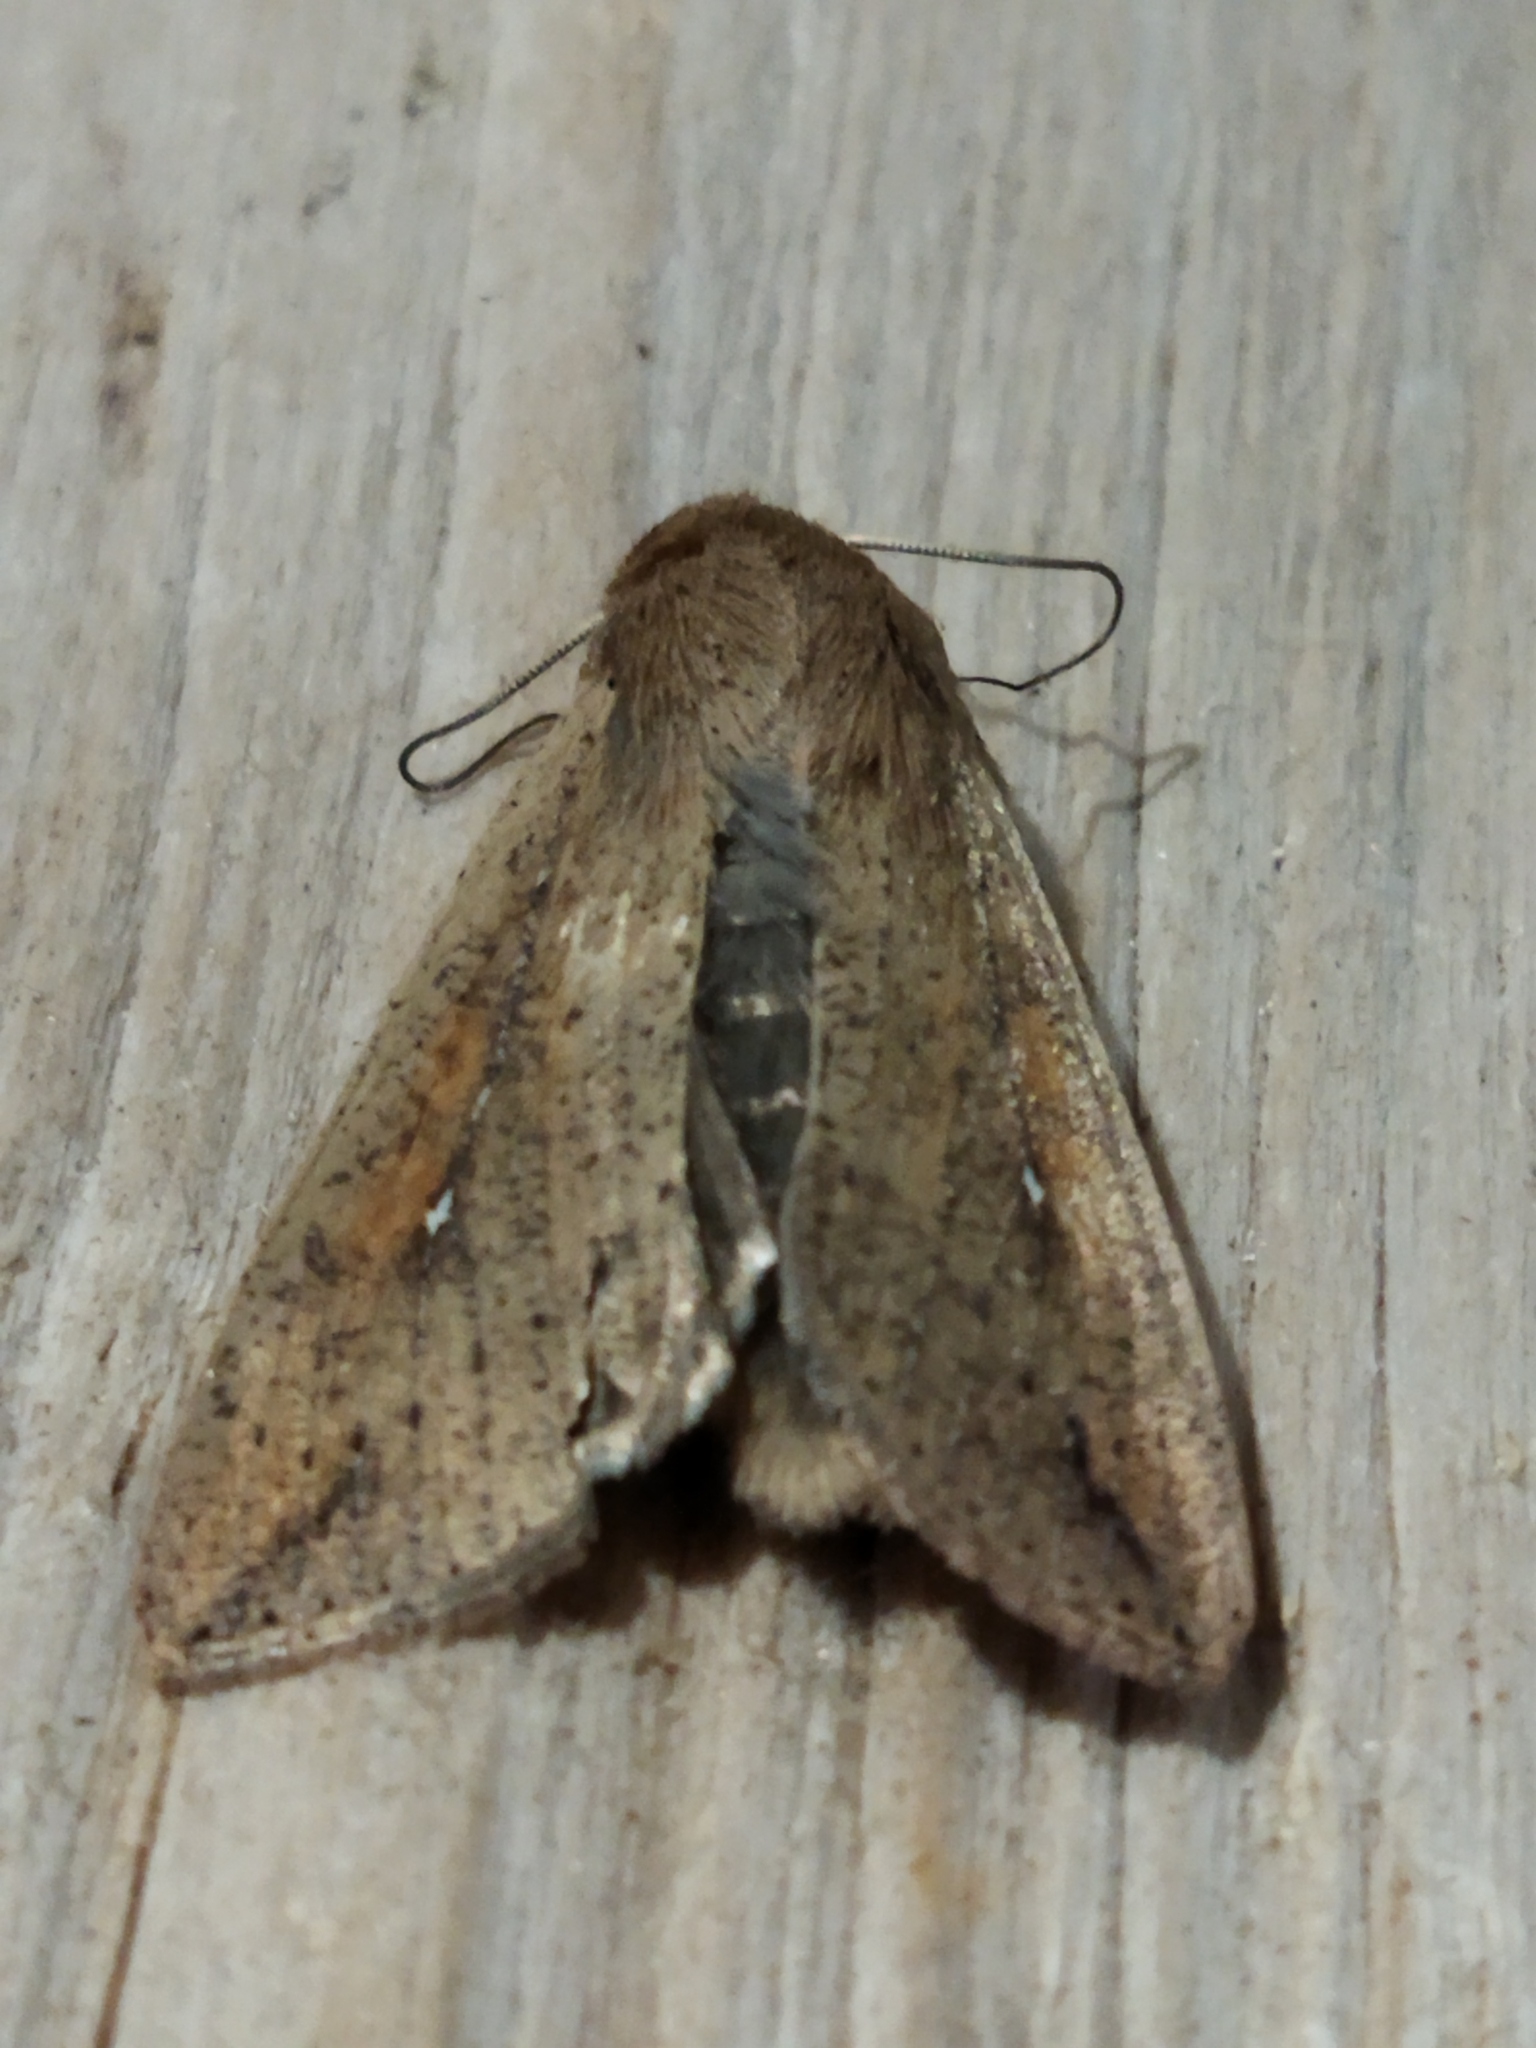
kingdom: Animalia
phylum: Arthropoda
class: Insecta
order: Lepidoptera
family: Noctuidae
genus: Mythimna
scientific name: Mythimna unipuncta
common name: White-speck
